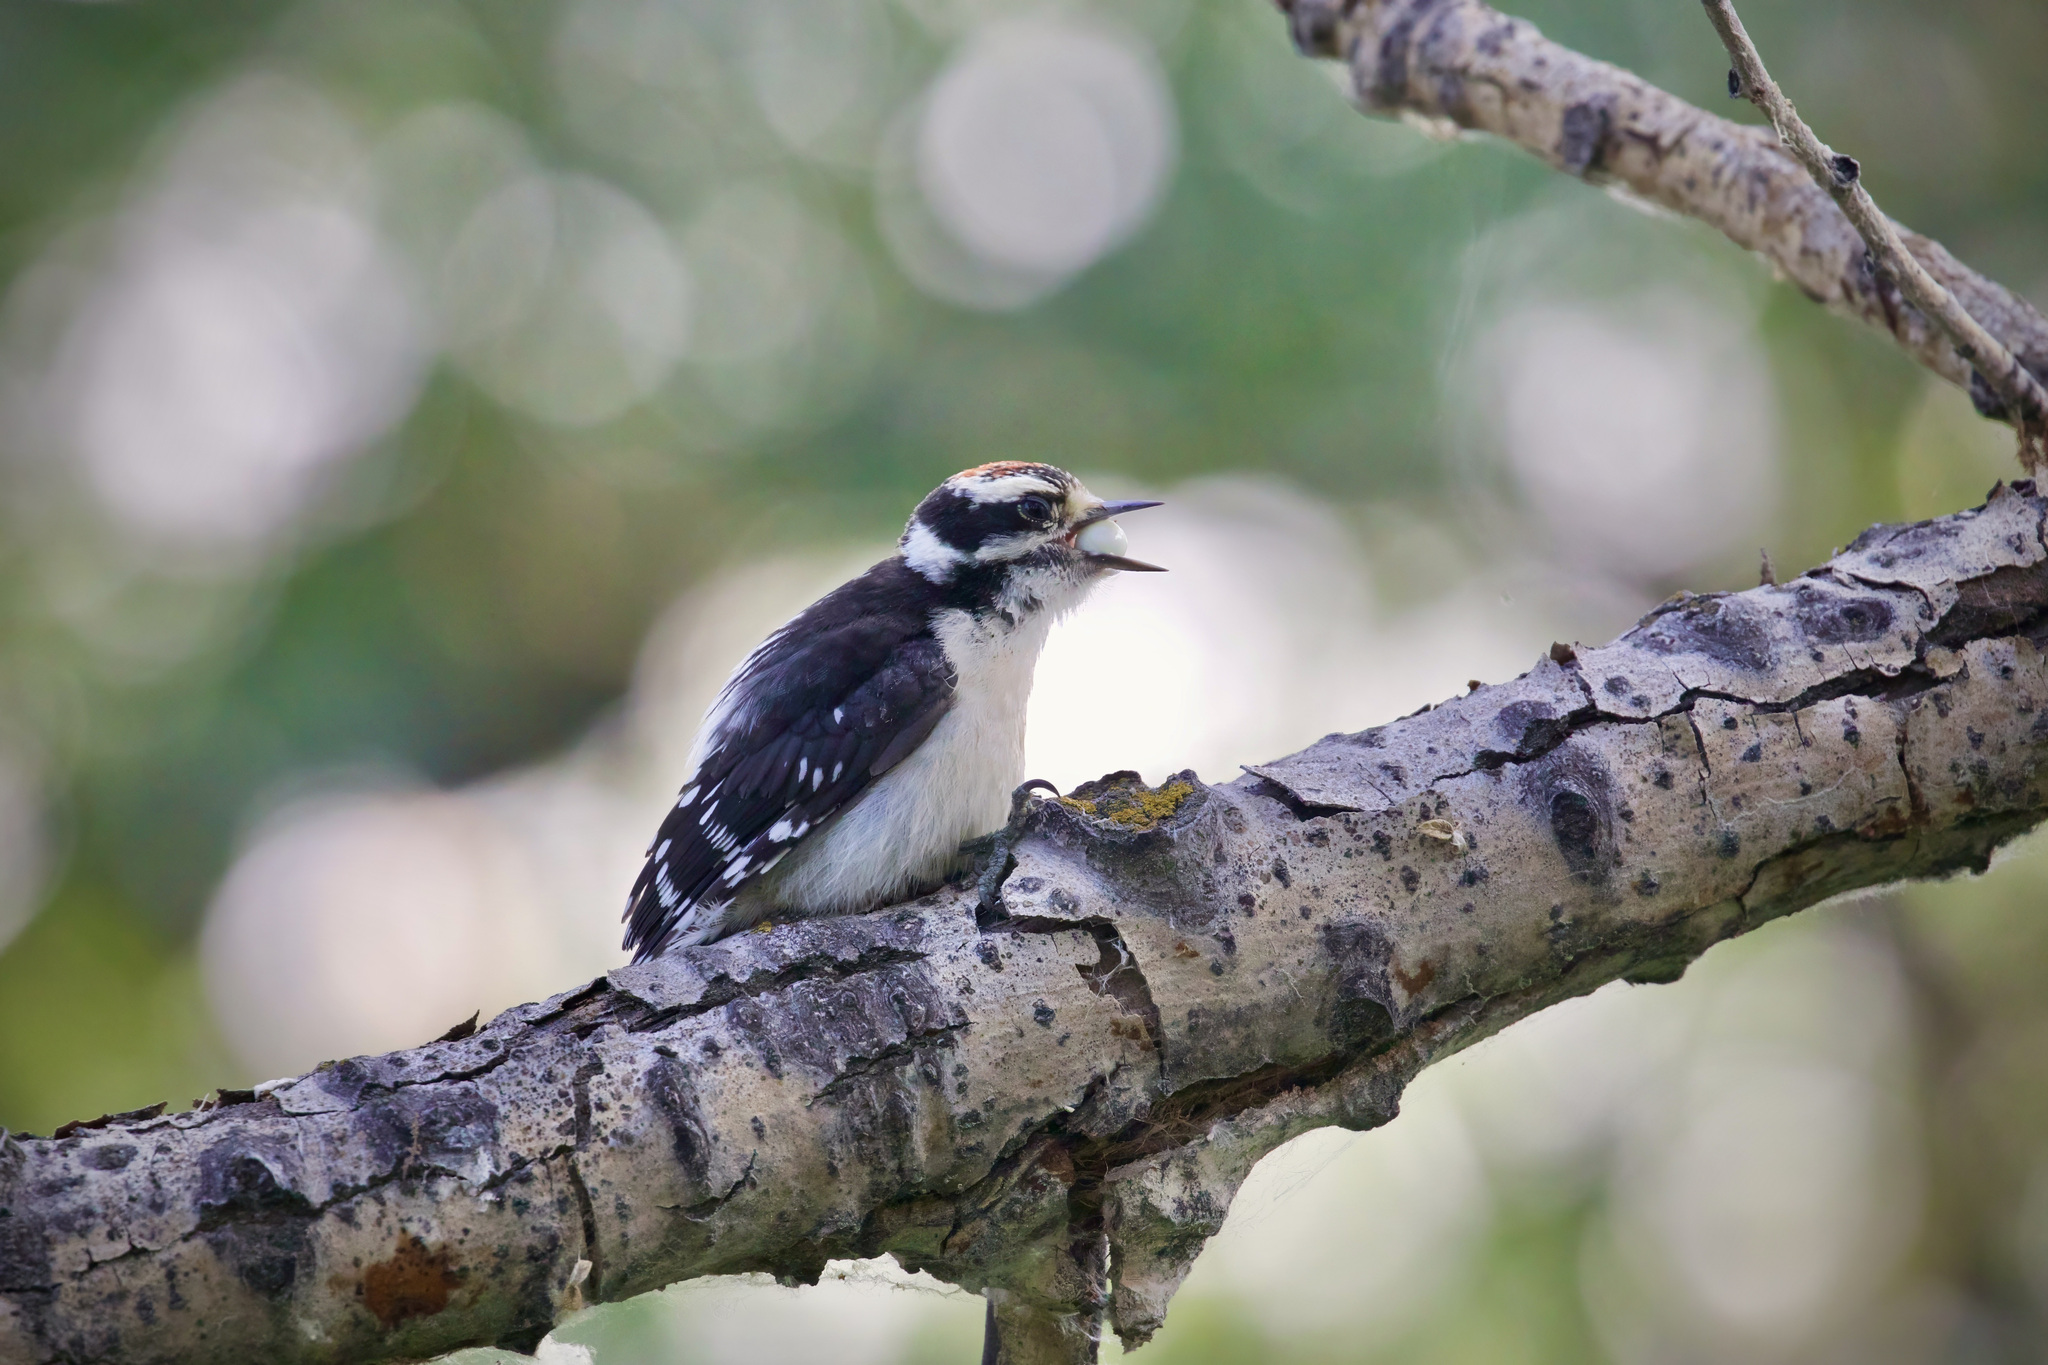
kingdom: Animalia
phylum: Chordata
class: Aves
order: Piciformes
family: Picidae
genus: Dryobates
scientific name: Dryobates pubescens
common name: Downy woodpecker
